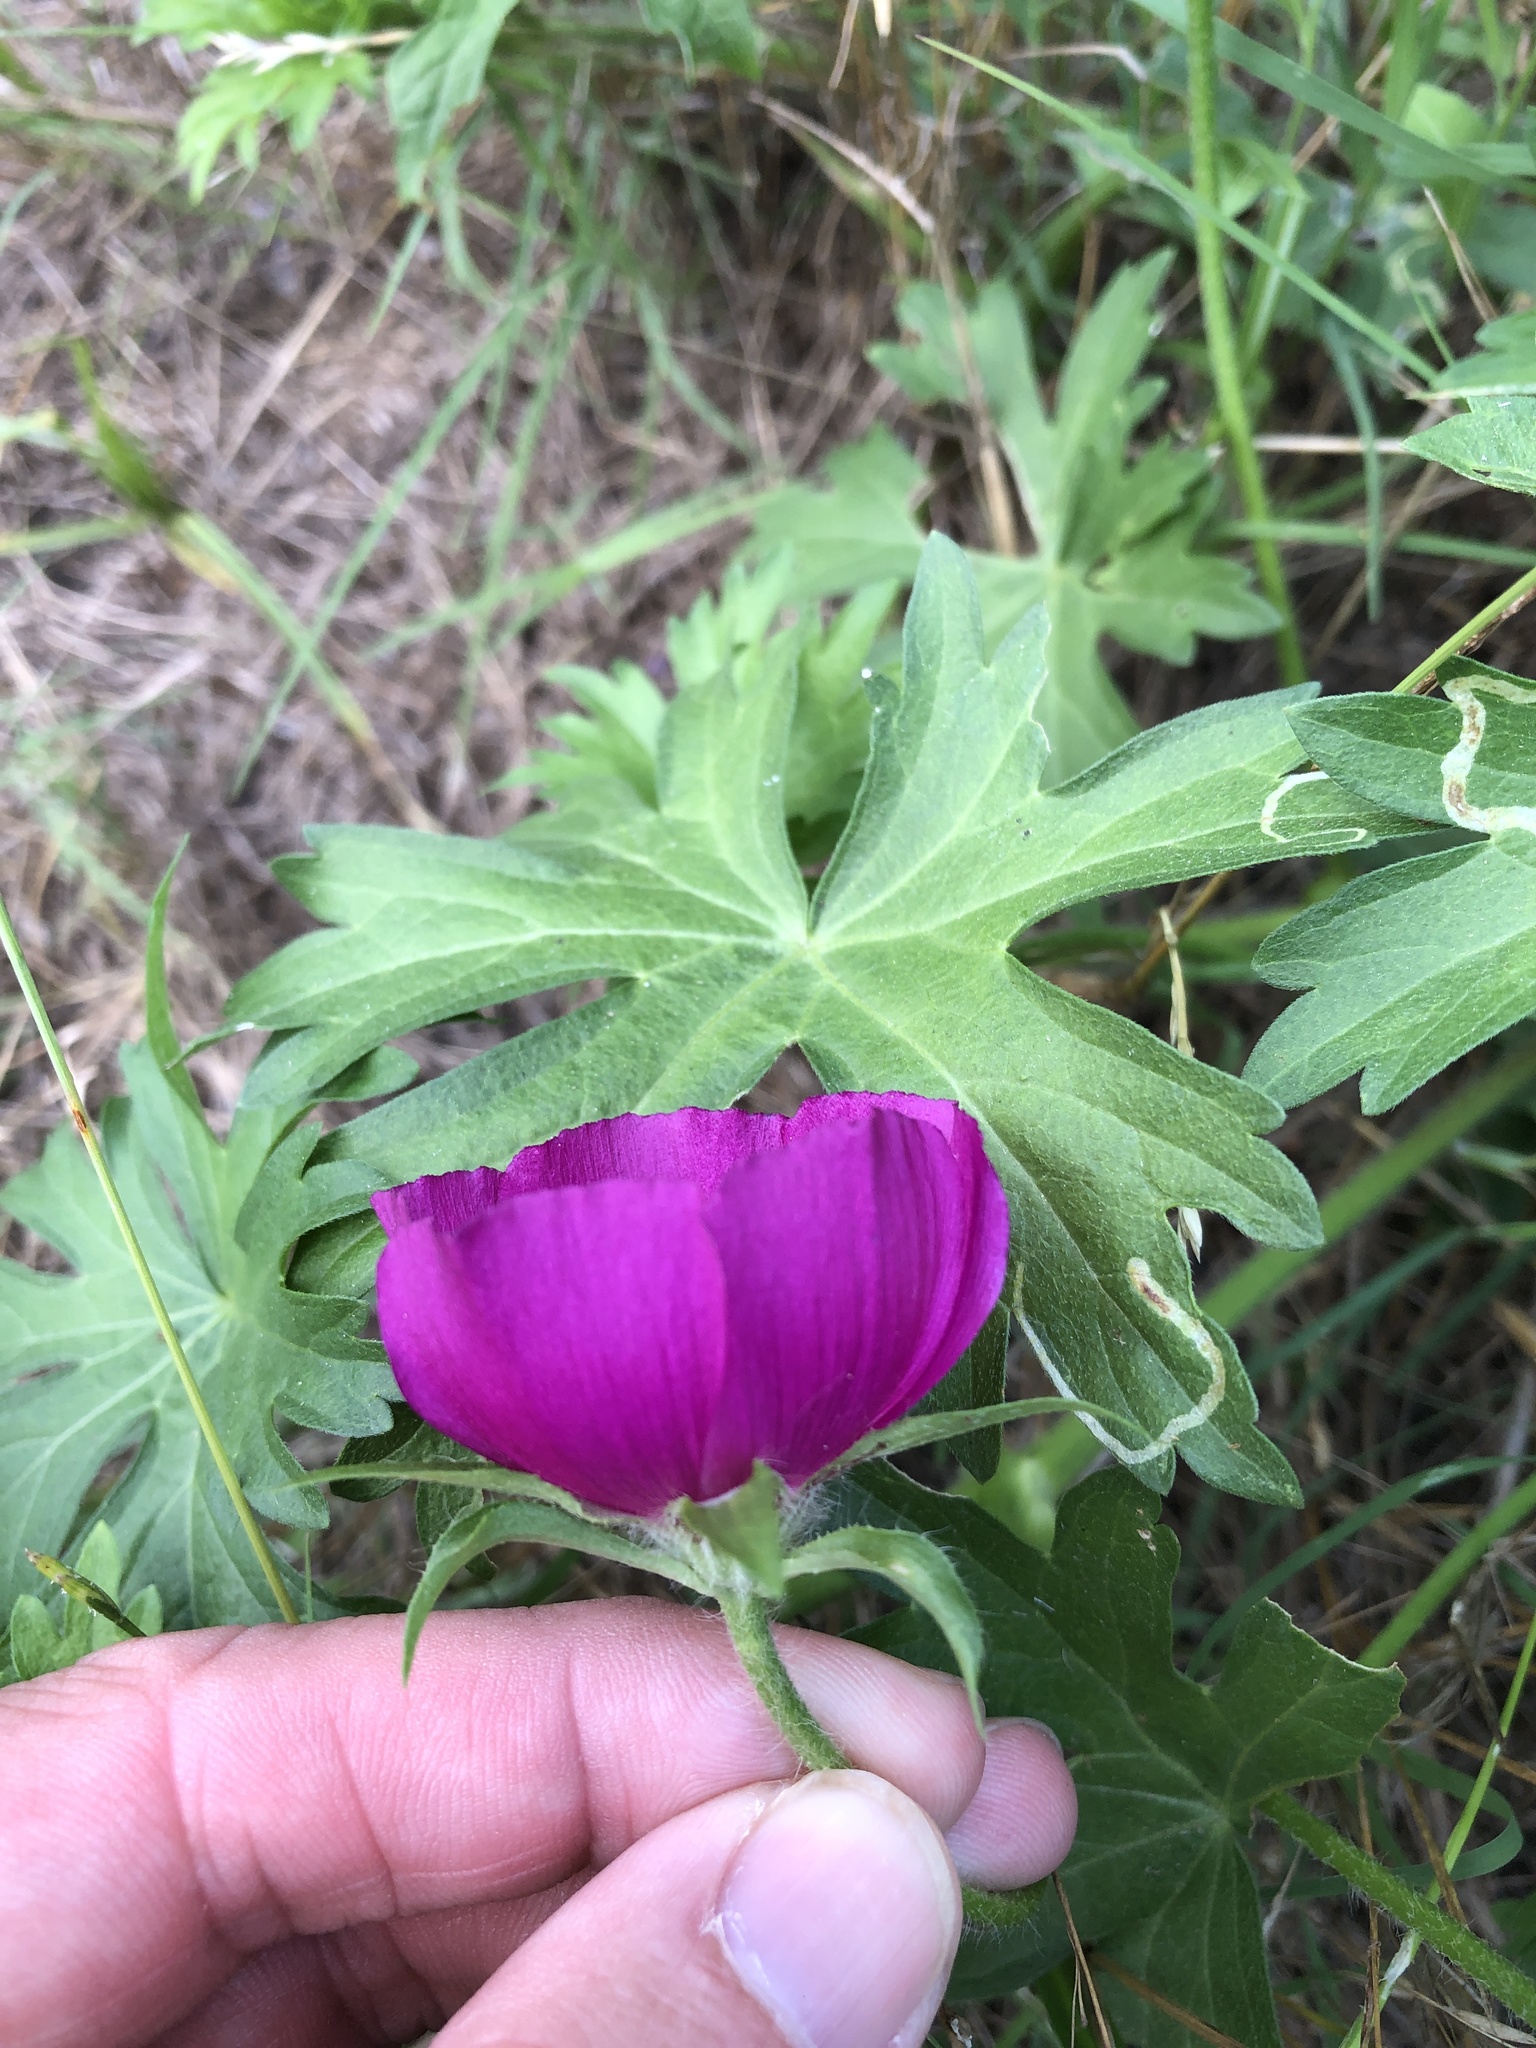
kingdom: Plantae
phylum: Tracheophyta
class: Magnoliopsida
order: Malvales
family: Malvaceae
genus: Callirhoe
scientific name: Callirhoe involucrata
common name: Purple poppy-mallow
